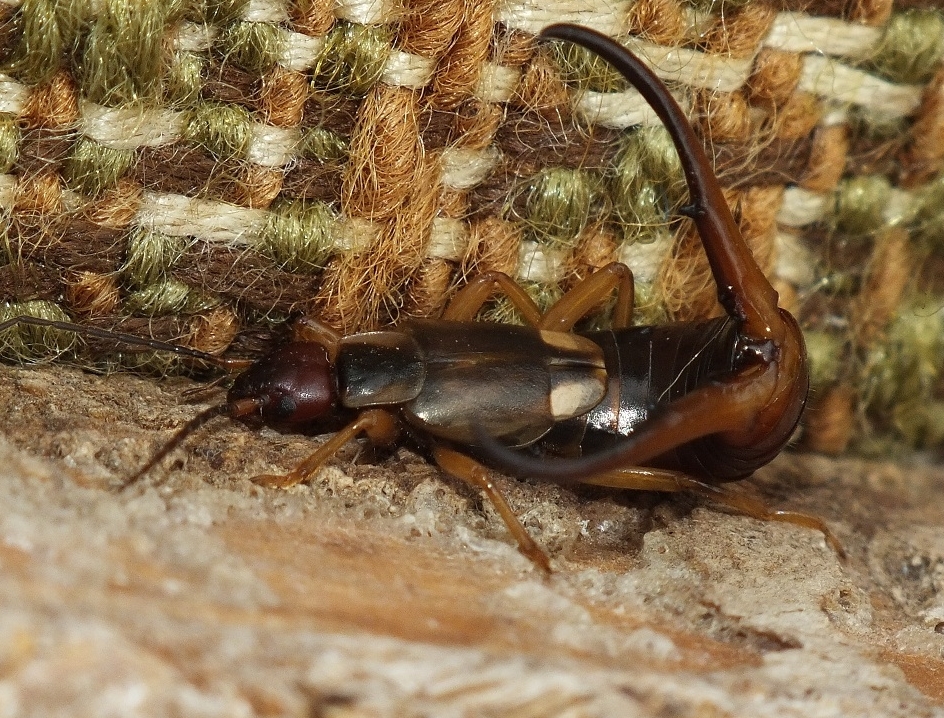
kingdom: Animalia
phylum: Arthropoda
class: Insecta
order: Dermaptera
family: Forficulidae
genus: Forficula
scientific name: Forficula
